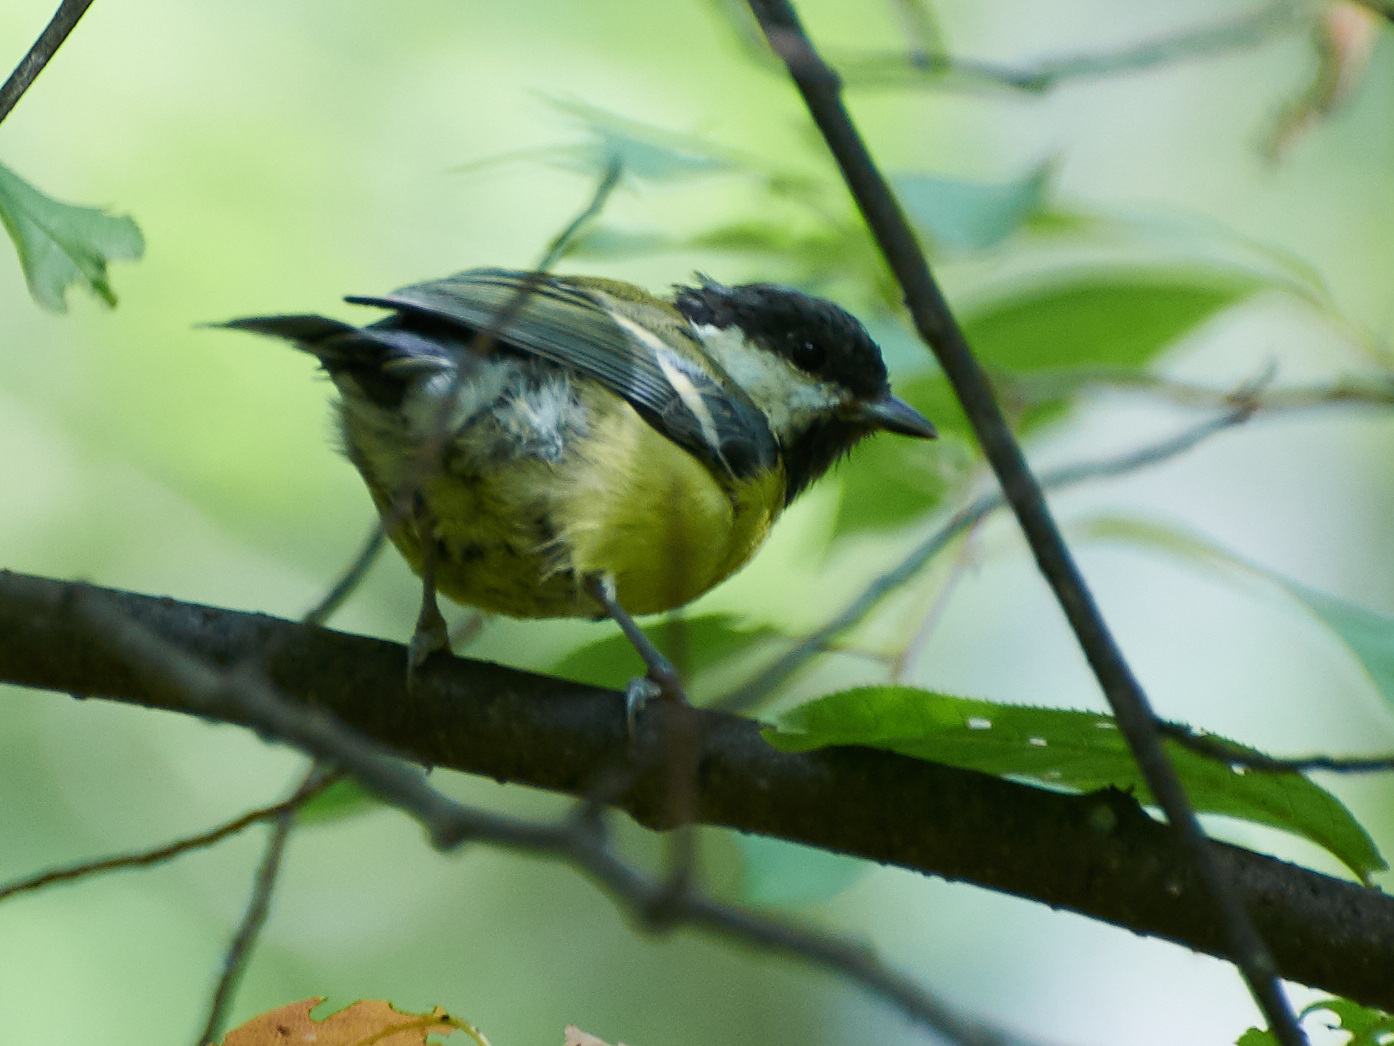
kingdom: Animalia
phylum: Chordata
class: Aves
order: Passeriformes
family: Paridae
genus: Parus
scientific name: Parus major
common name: Great tit
